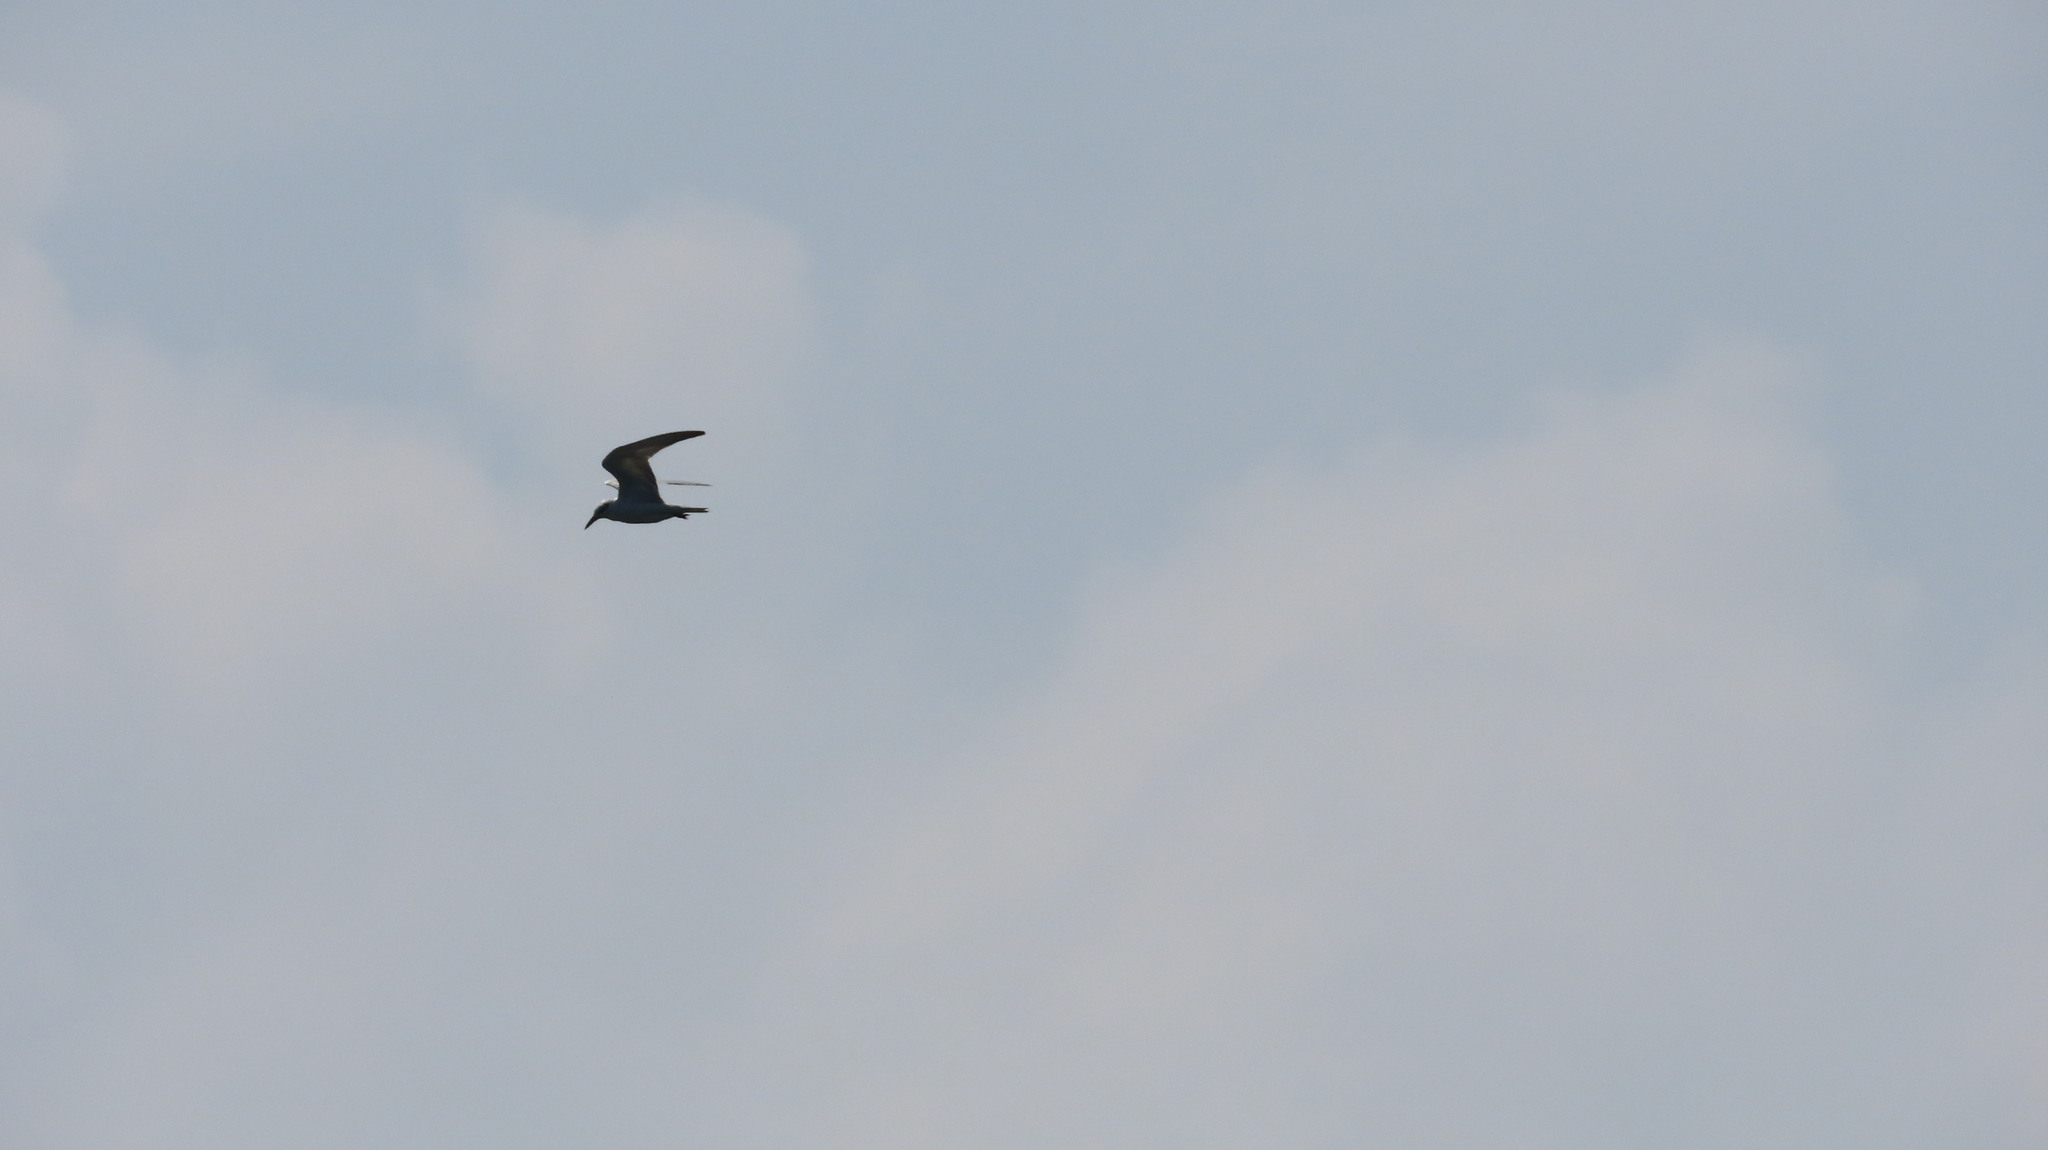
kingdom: Animalia
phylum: Chordata
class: Aves
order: Charadriiformes
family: Laridae
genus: Chlidonias
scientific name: Chlidonias hybrida
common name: Whiskered tern
